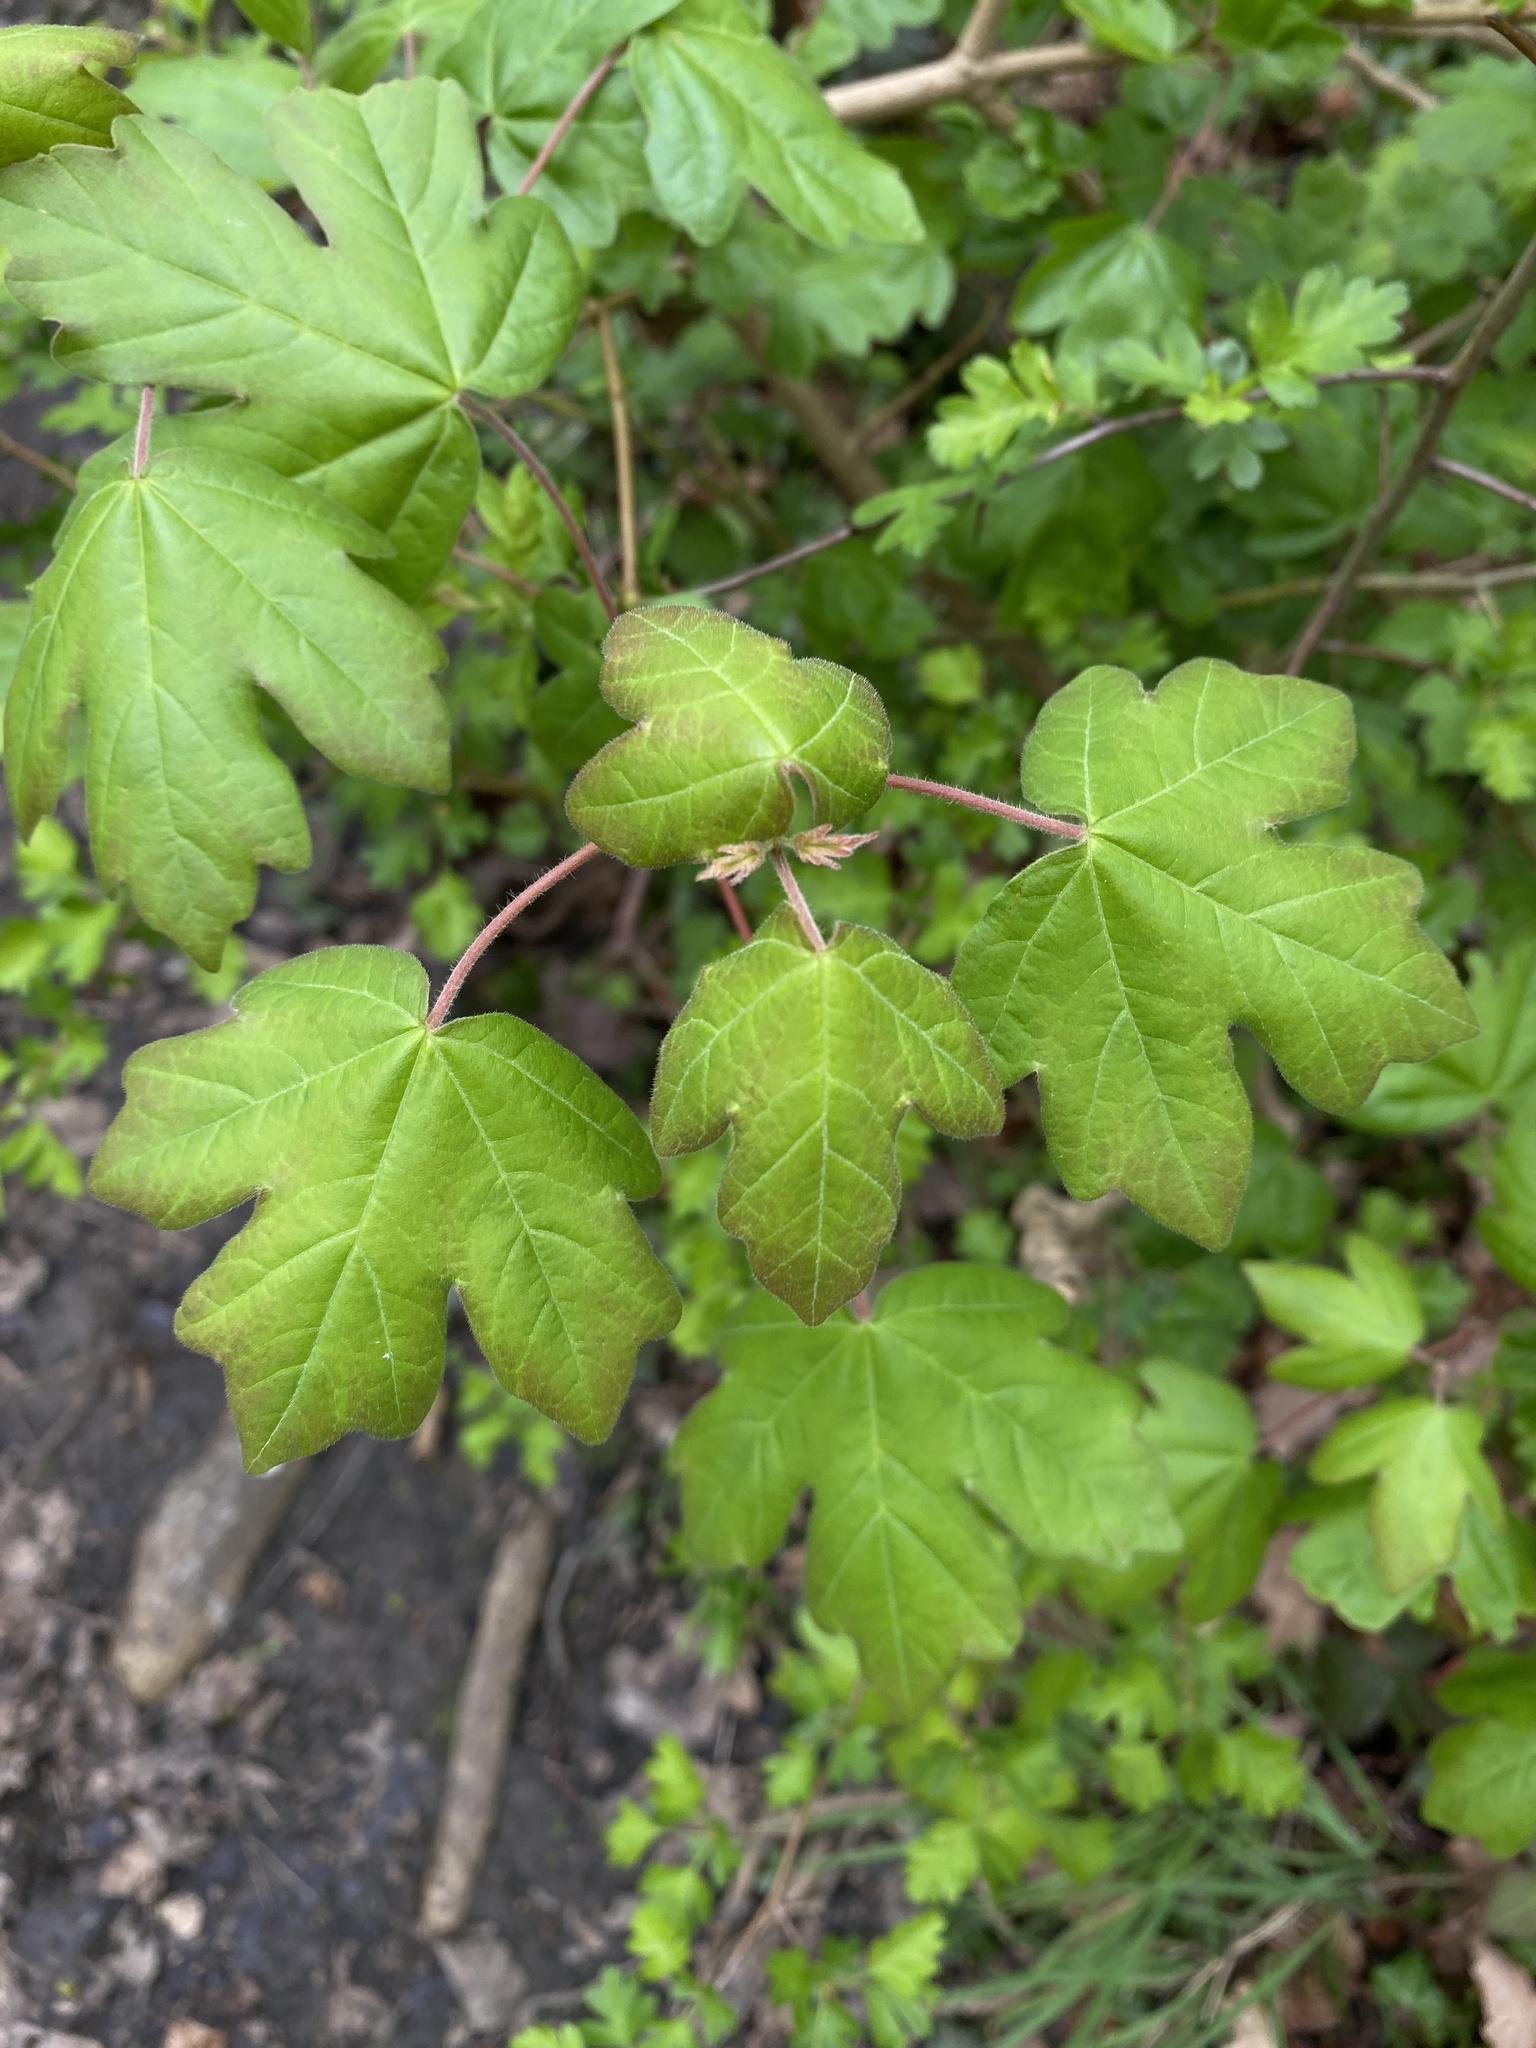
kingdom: Plantae
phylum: Tracheophyta
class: Magnoliopsida
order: Sapindales
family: Sapindaceae
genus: Acer
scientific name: Acer campestre
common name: Field maple
